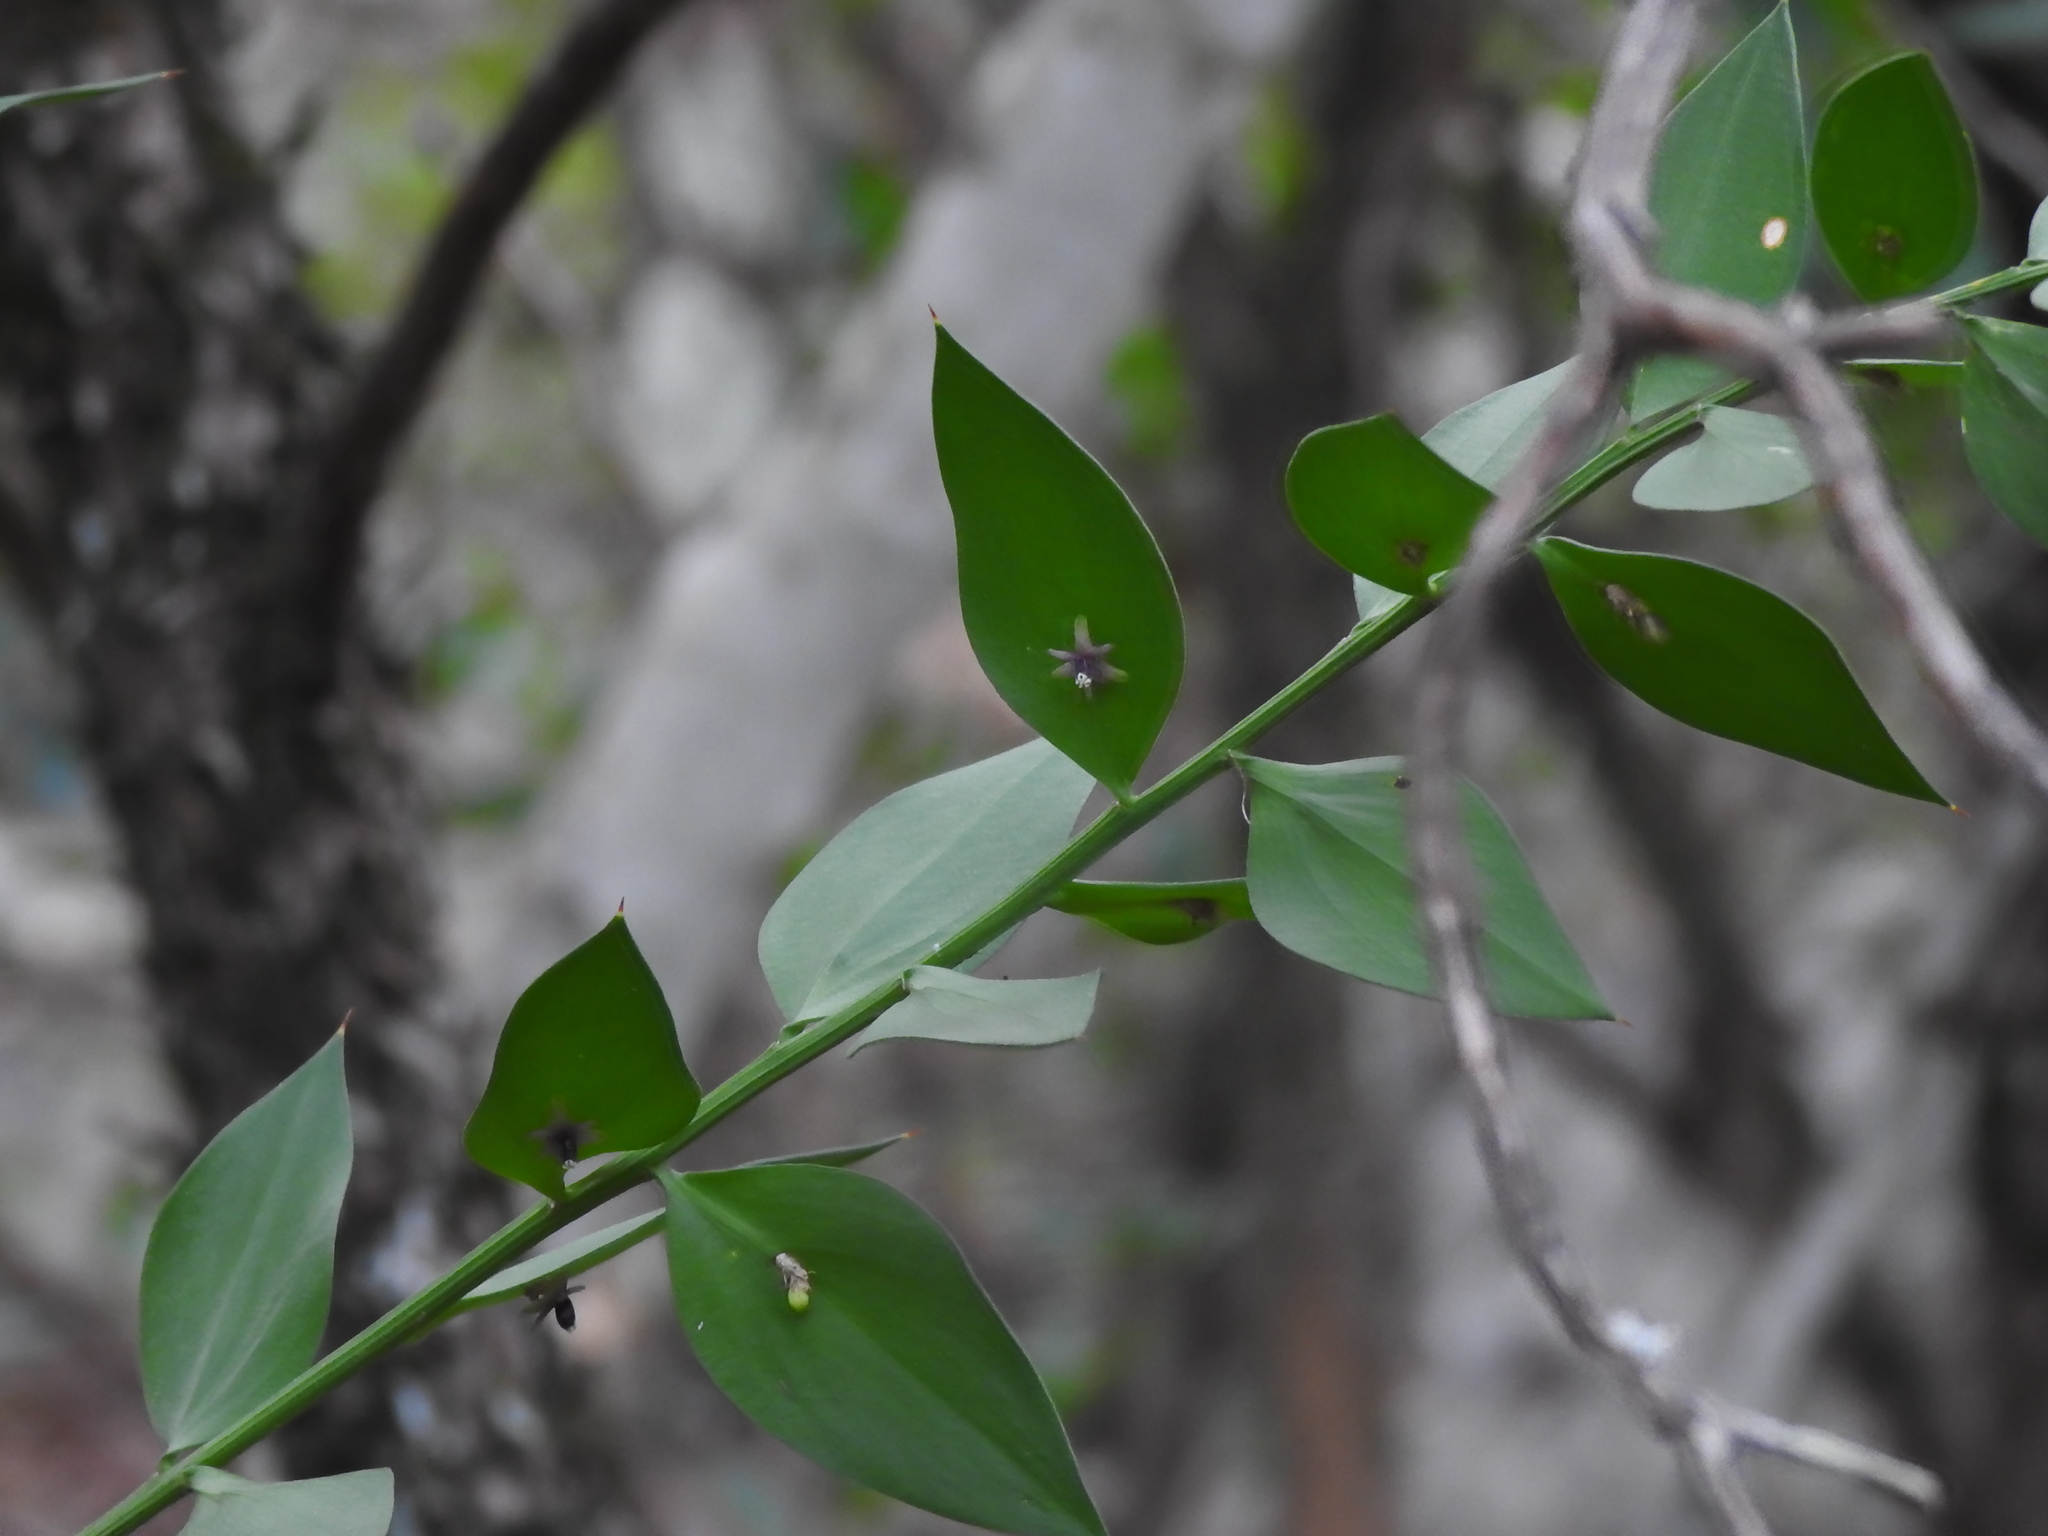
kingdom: Plantae
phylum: Tracheophyta
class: Liliopsida
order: Asparagales
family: Asparagaceae
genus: Ruscus
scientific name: Ruscus aculeatus
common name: Butcher's-broom
